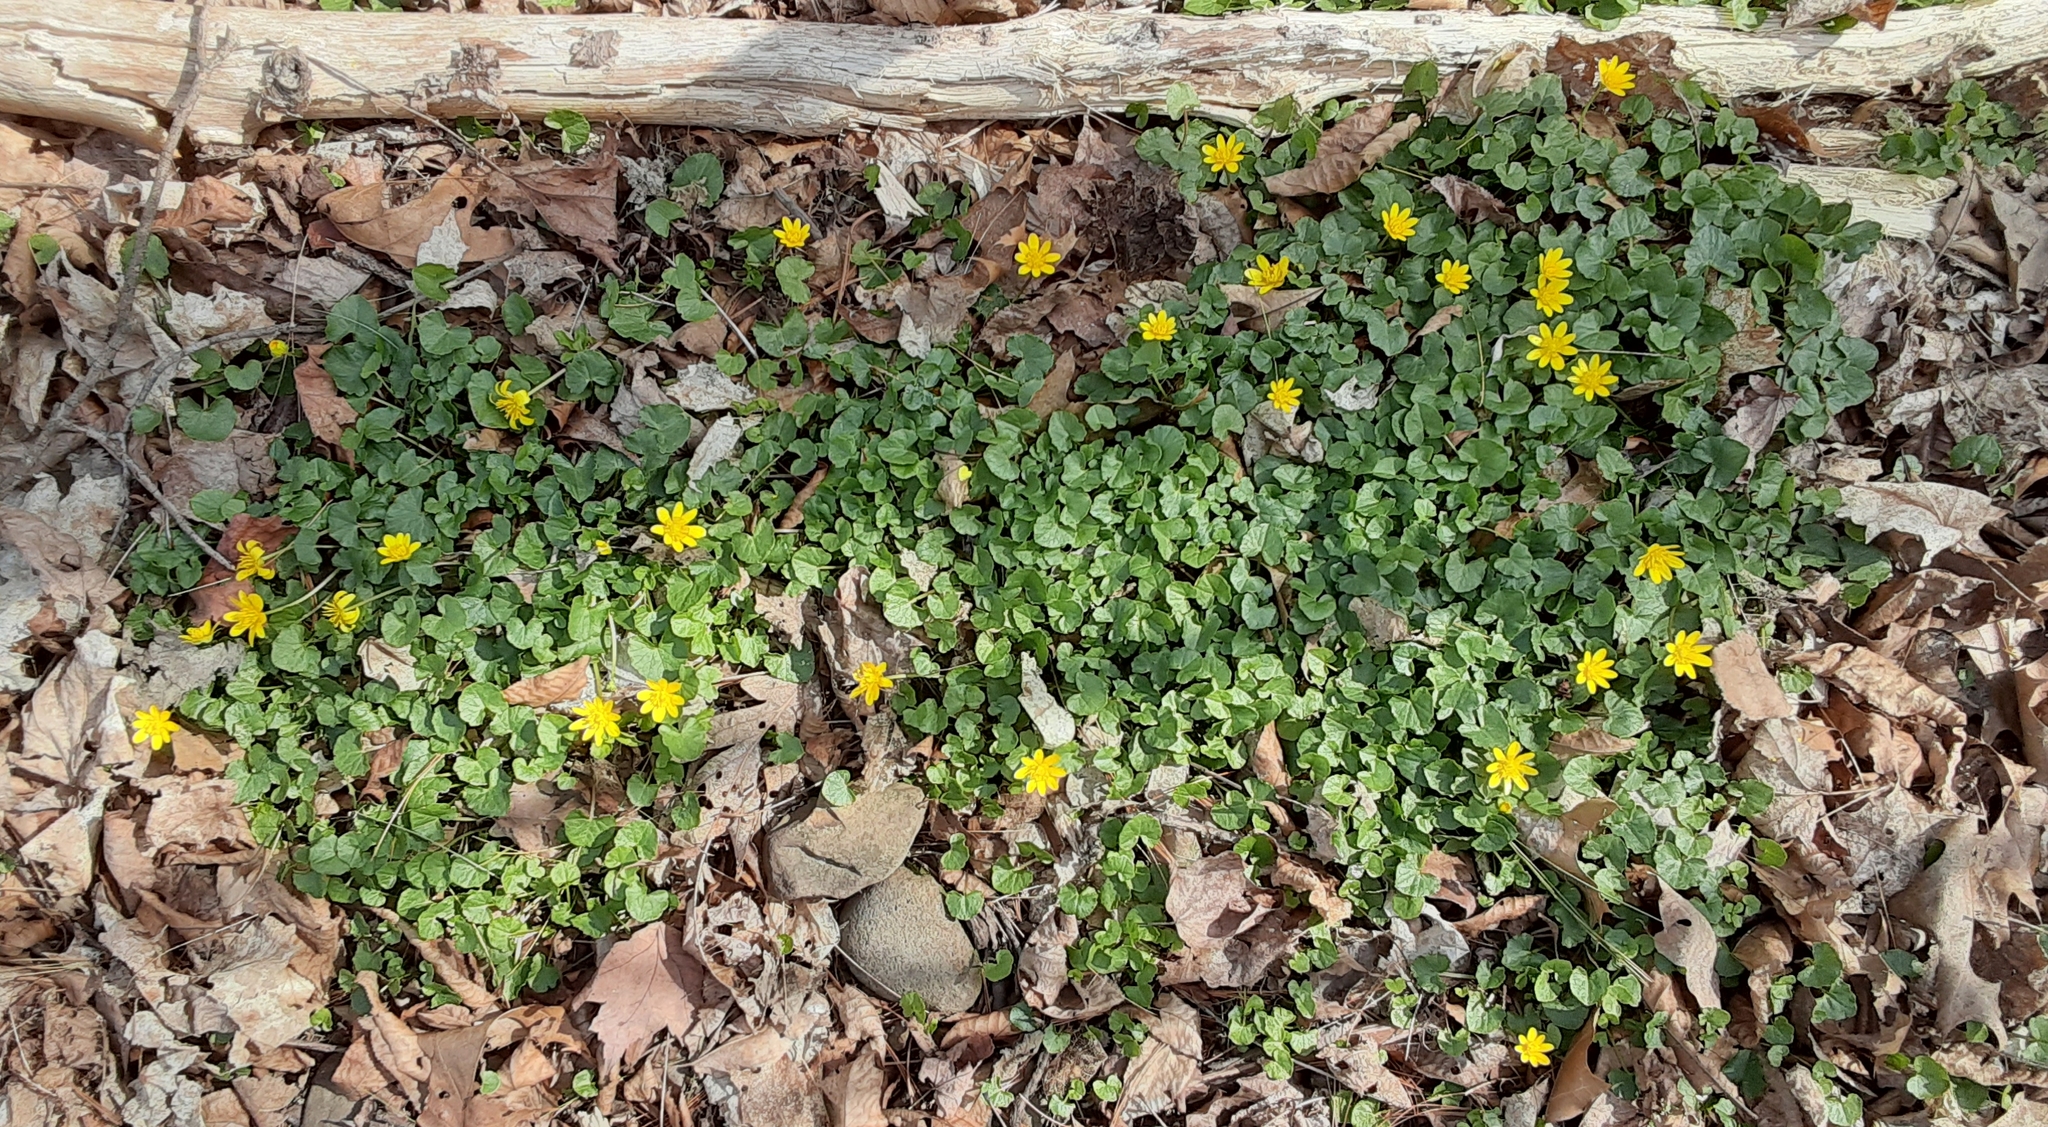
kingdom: Plantae
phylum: Tracheophyta
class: Magnoliopsida
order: Ranunculales
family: Ranunculaceae
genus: Ficaria
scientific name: Ficaria verna
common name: Lesser celandine
